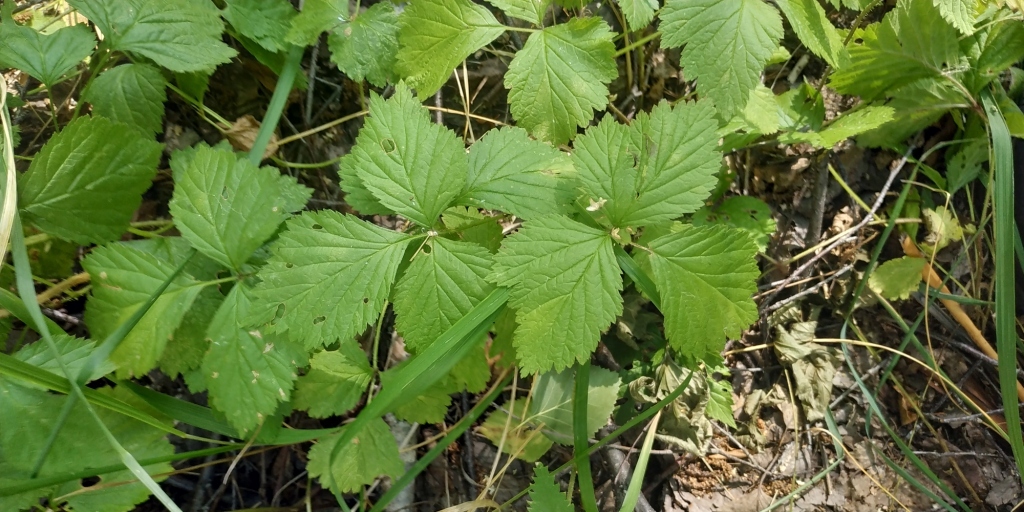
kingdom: Plantae
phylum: Tracheophyta
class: Magnoliopsida
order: Rosales
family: Rosaceae
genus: Rubus
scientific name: Rubus saxatilis
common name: Stone bramble
